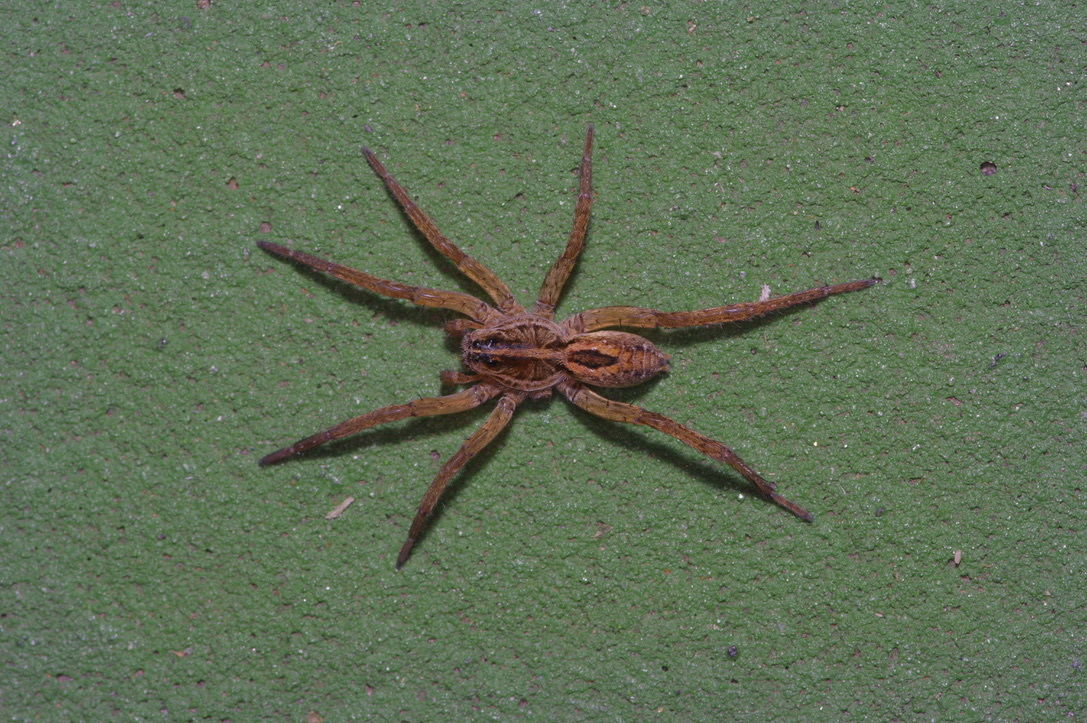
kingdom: Animalia
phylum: Arthropoda
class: Arachnida
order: Araneae
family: Lycosidae
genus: Tigrosa
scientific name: Tigrosa annexa
